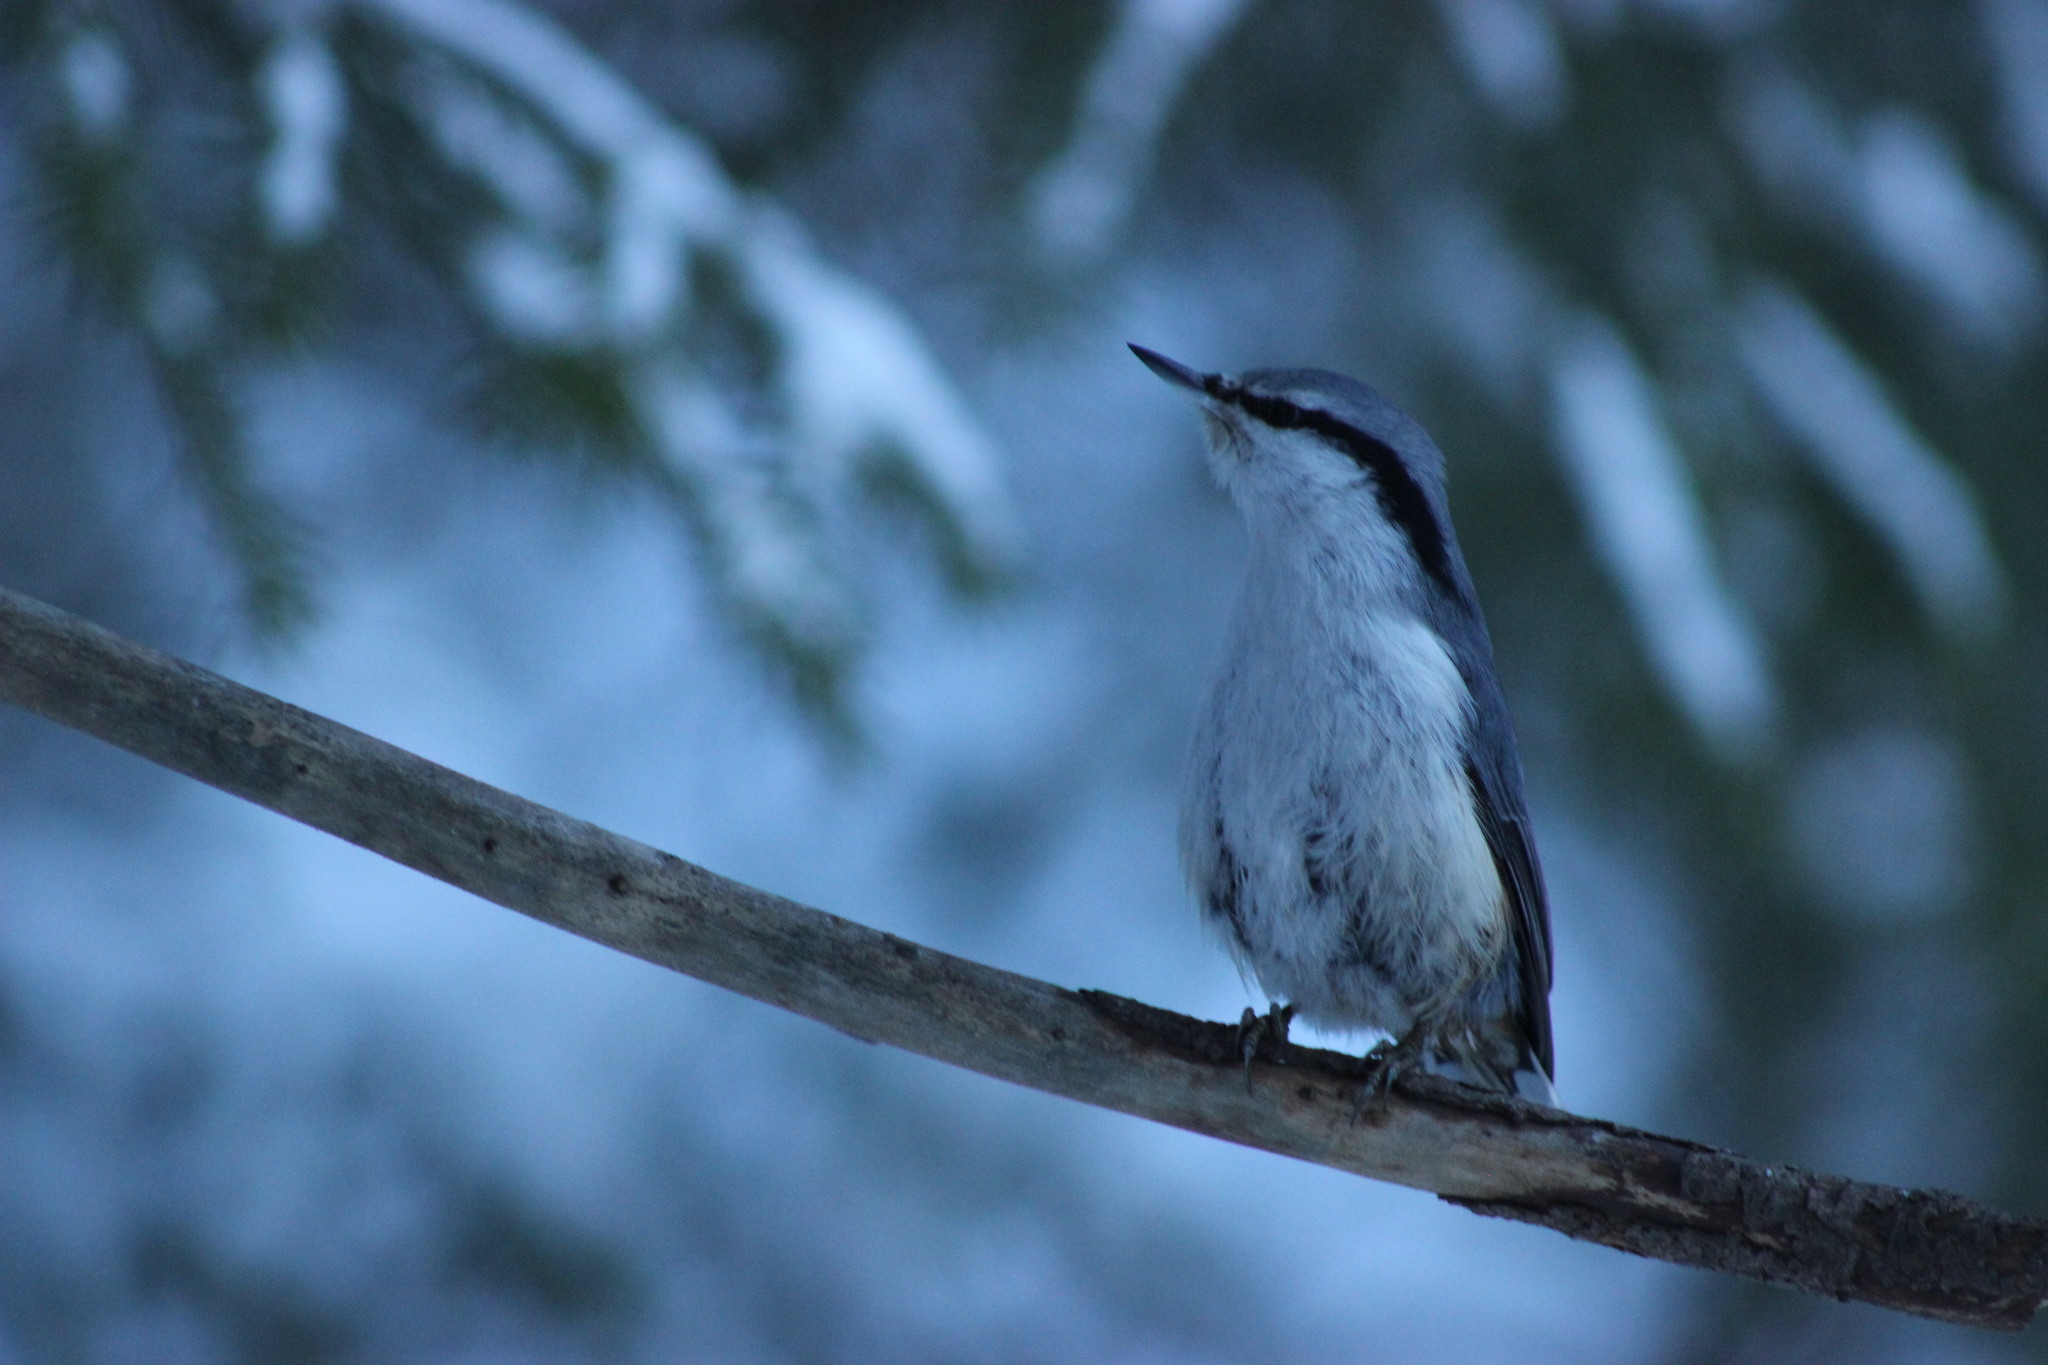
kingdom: Animalia
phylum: Chordata
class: Aves
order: Passeriformes
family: Sittidae
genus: Sitta
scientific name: Sitta europaea
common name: Eurasian nuthatch
